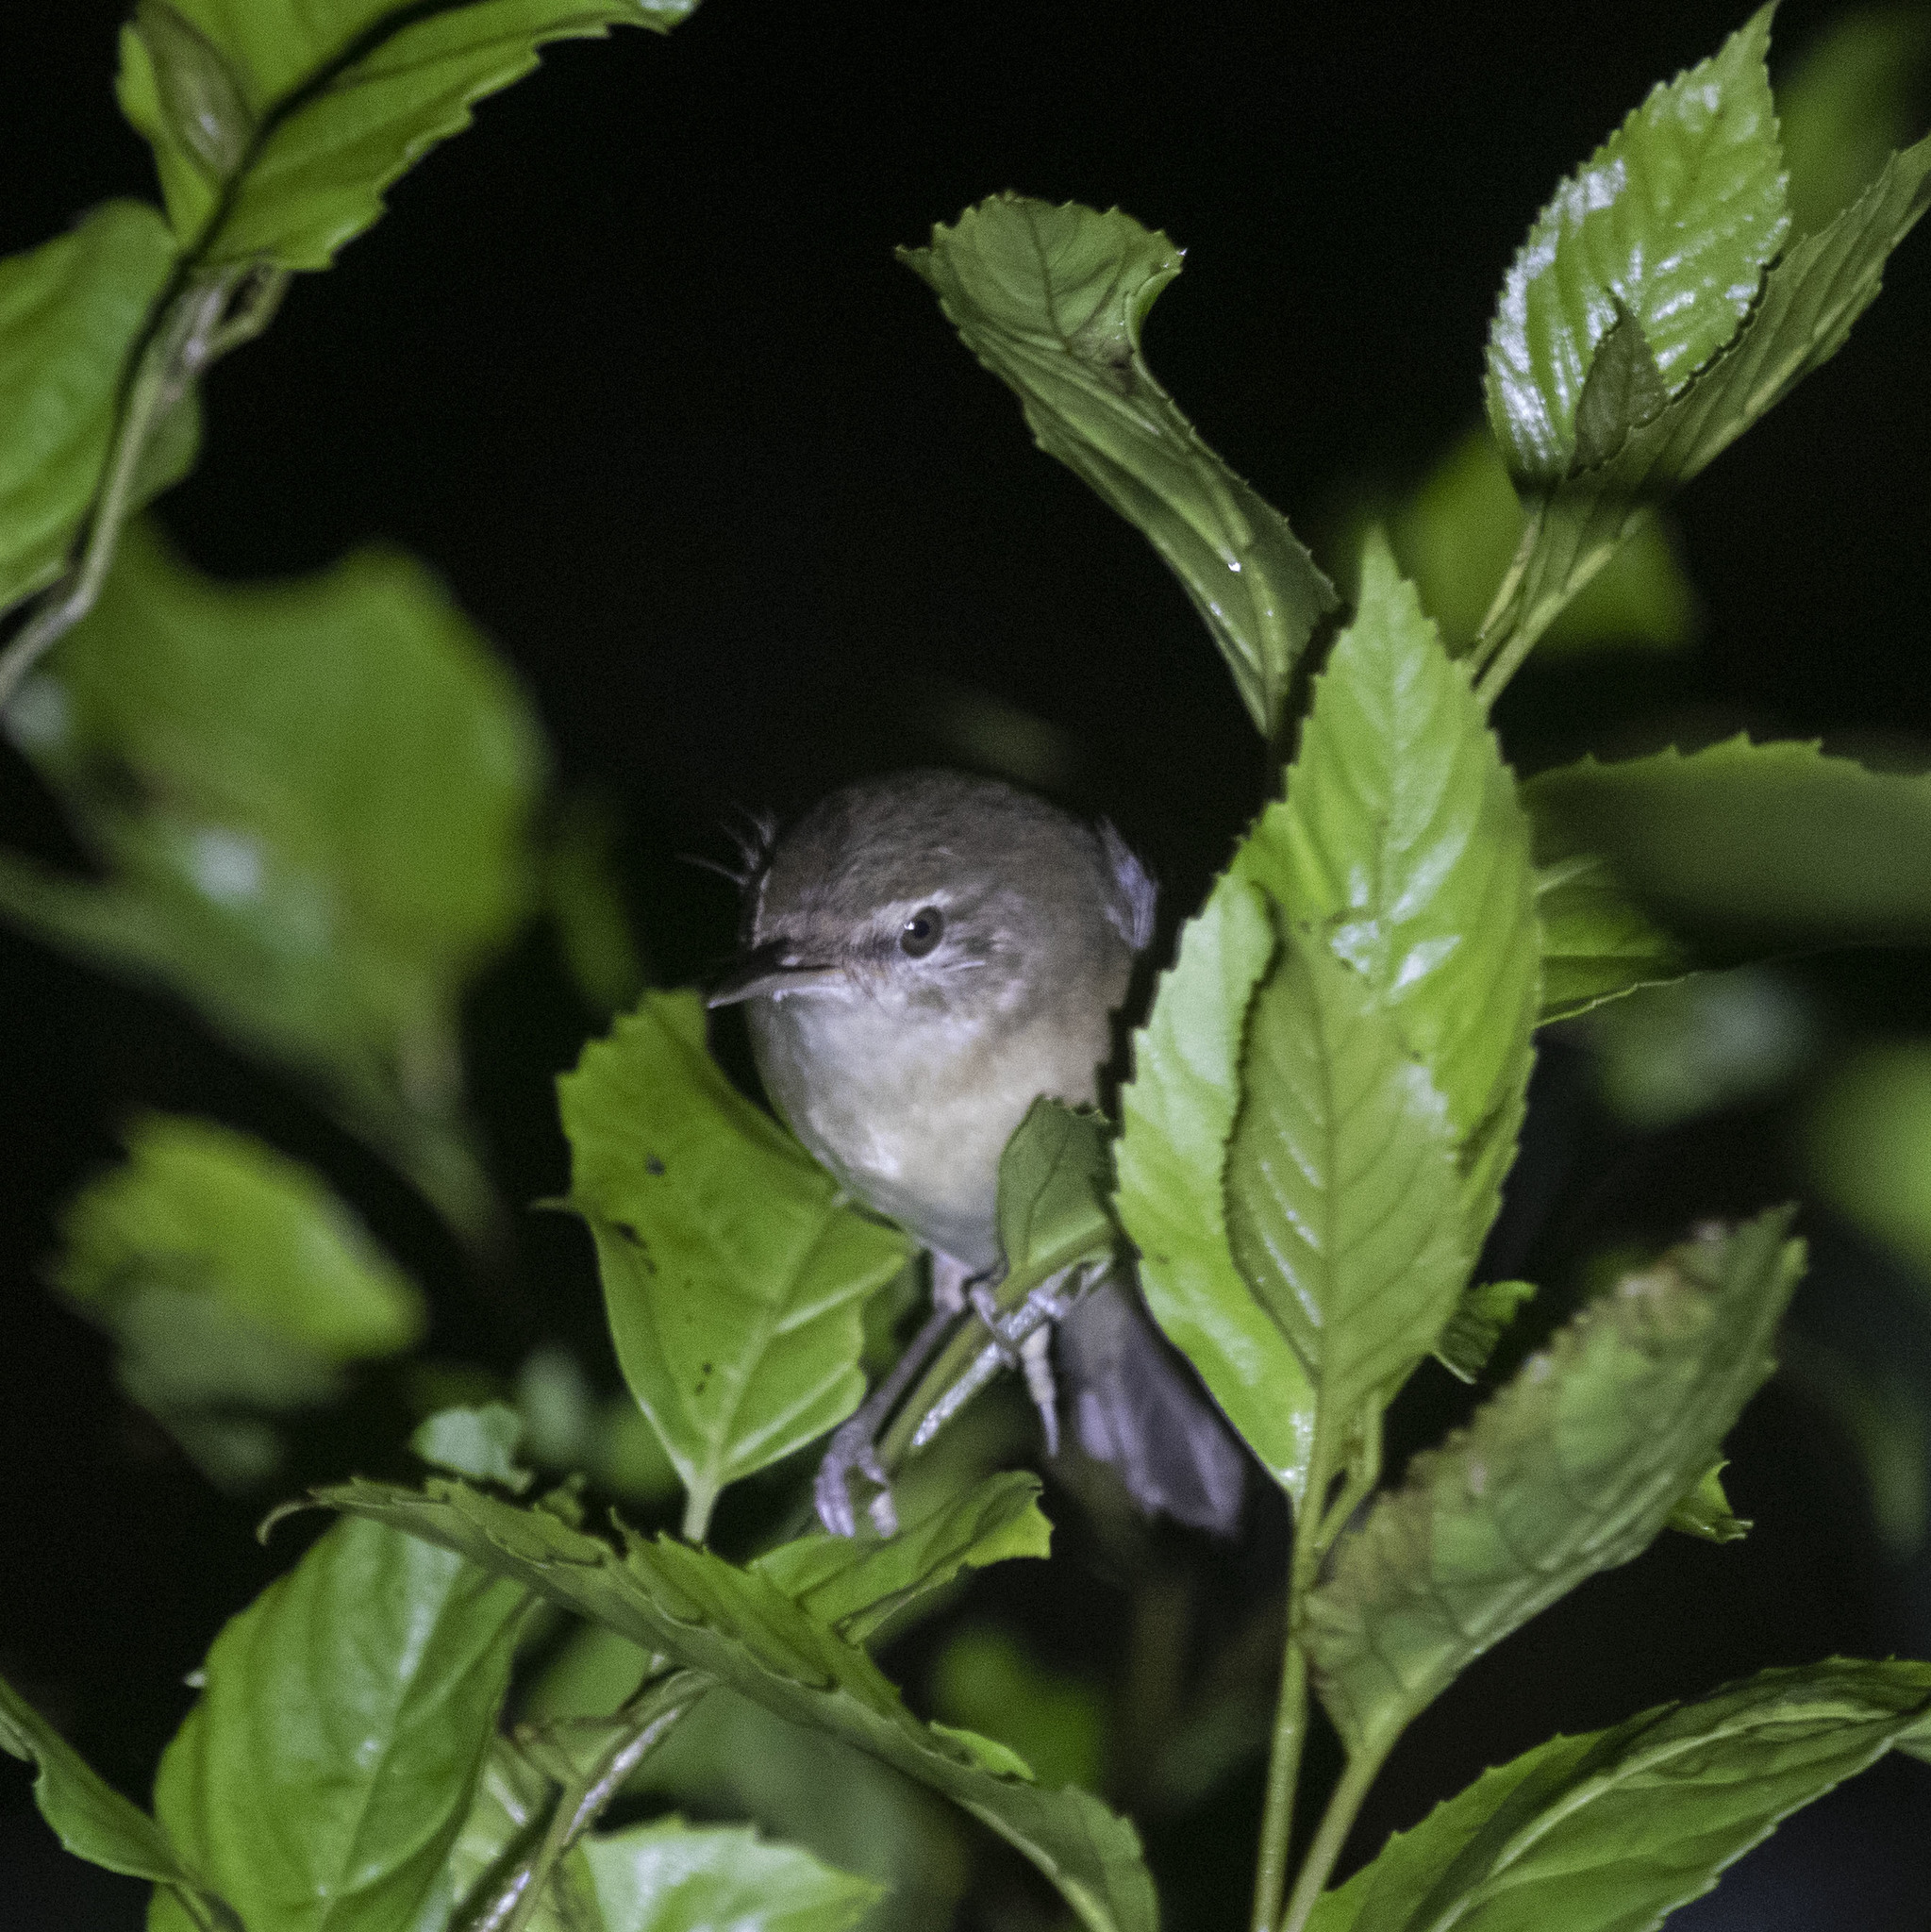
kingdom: Animalia
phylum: Chordata
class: Aves
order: Passeriformes
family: Acrocephalidae
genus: Acrocephalus
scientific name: Acrocephalus dumetorum
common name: Blyth's reed warbler
